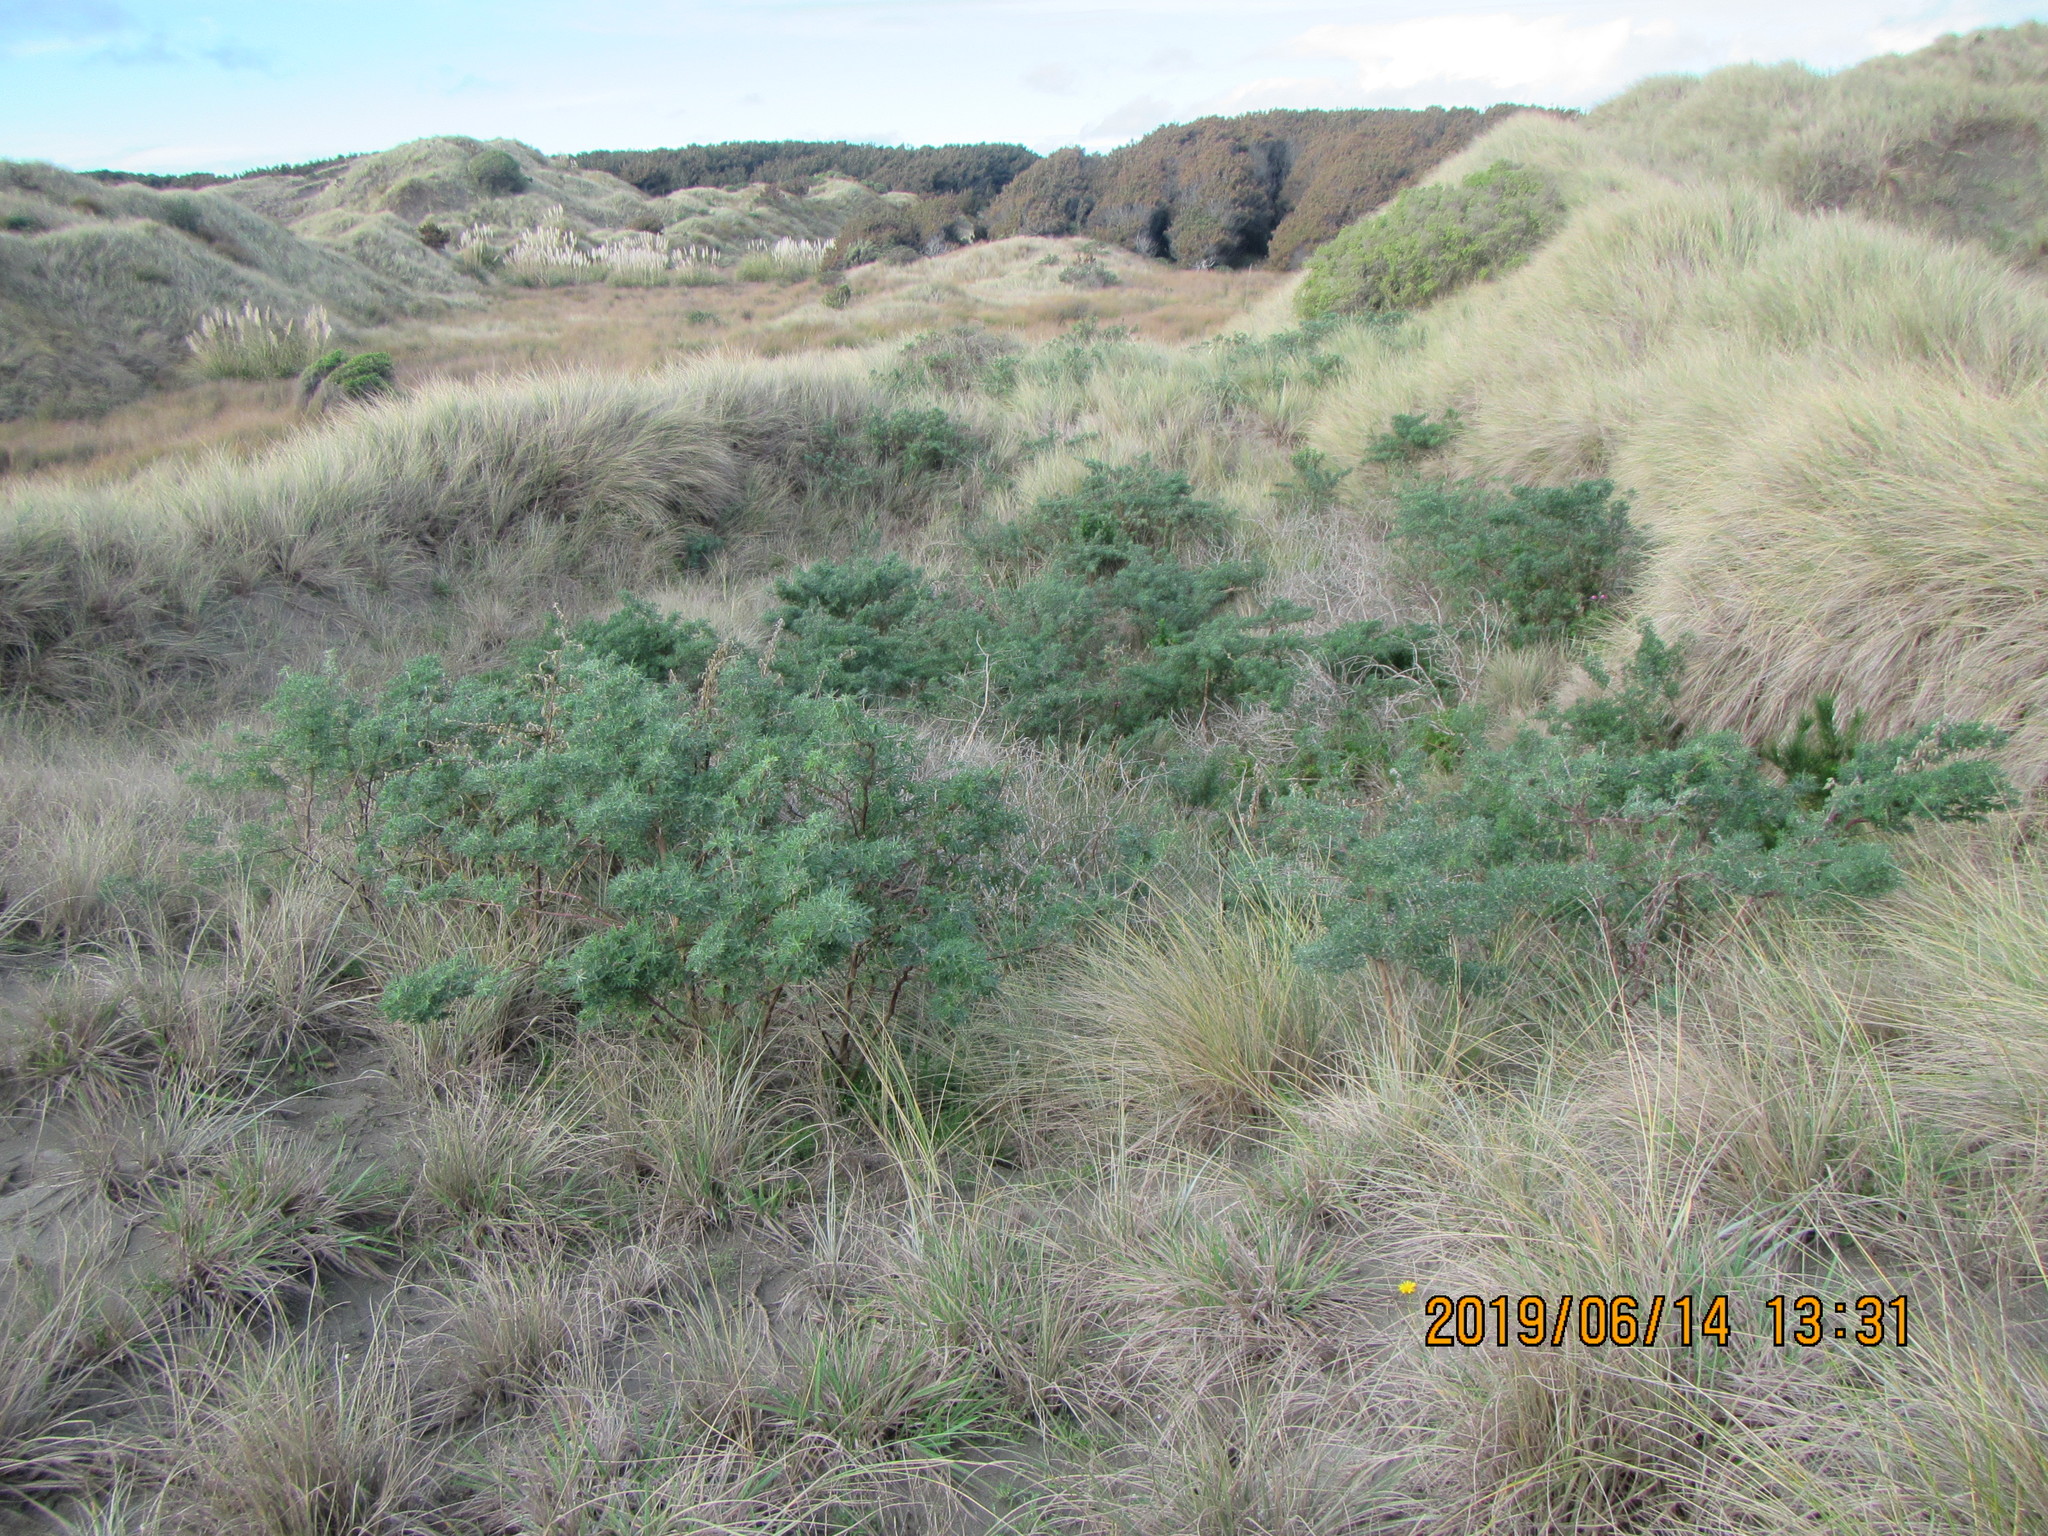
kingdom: Plantae
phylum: Tracheophyta
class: Magnoliopsida
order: Fabales
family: Fabaceae
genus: Lupinus
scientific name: Lupinus arboreus
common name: Yellow bush lupine
